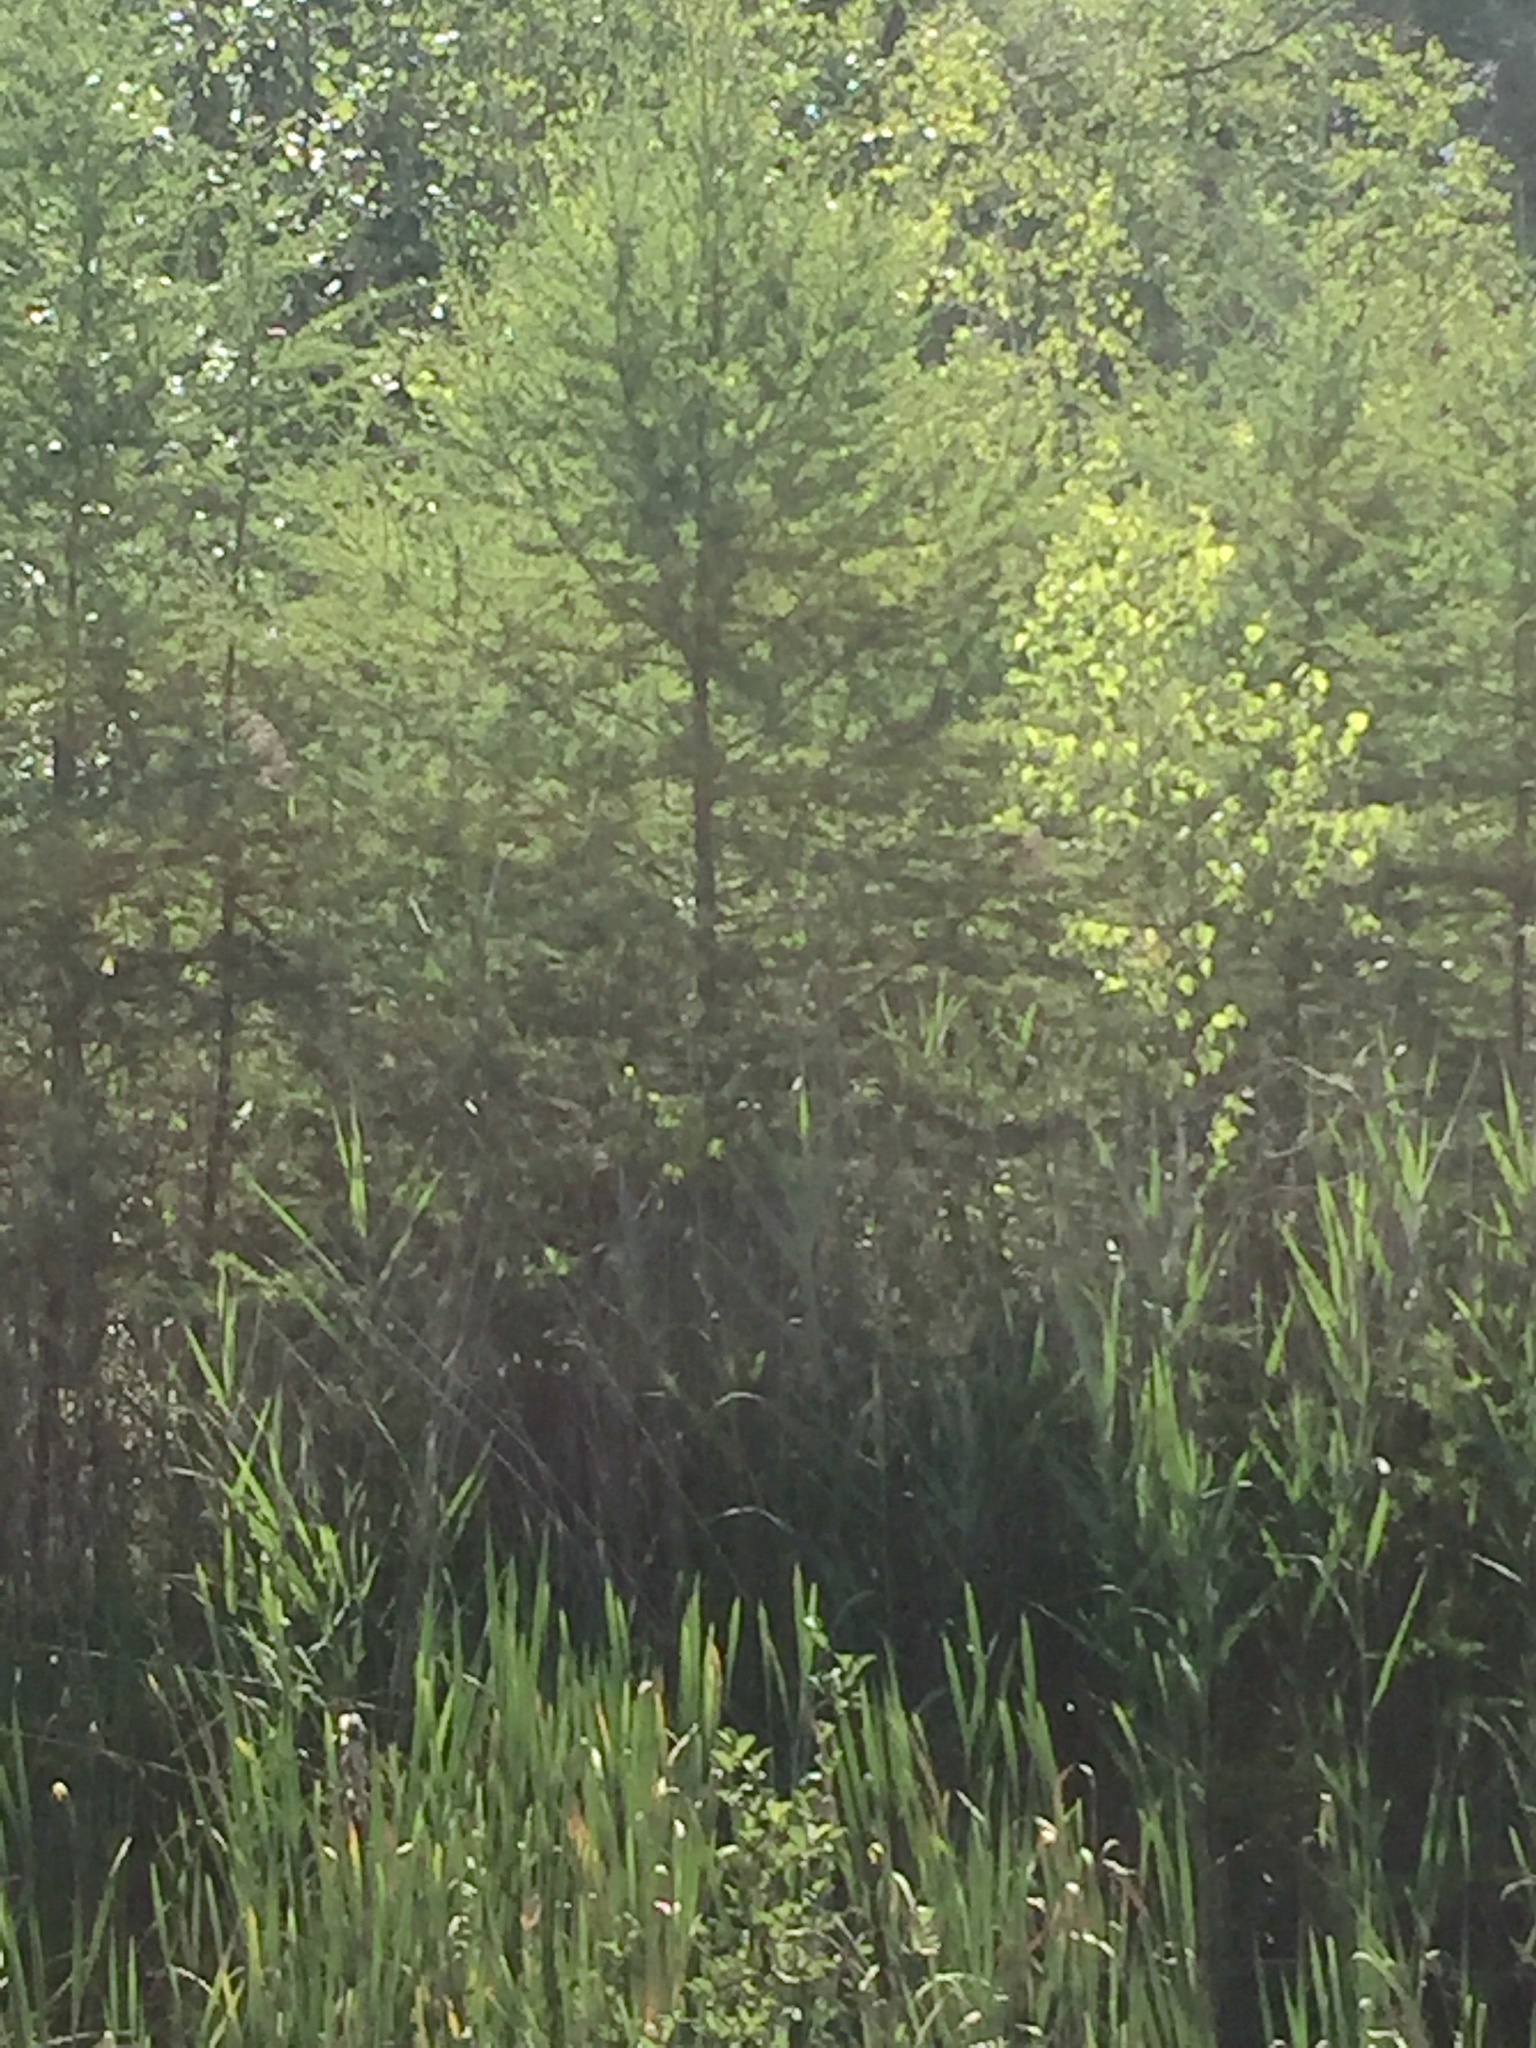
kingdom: Plantae
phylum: Tracheophyta
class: Pinopsida
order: Pinales
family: Pinaceae
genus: Larix
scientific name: Larix laricina
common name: American larch
